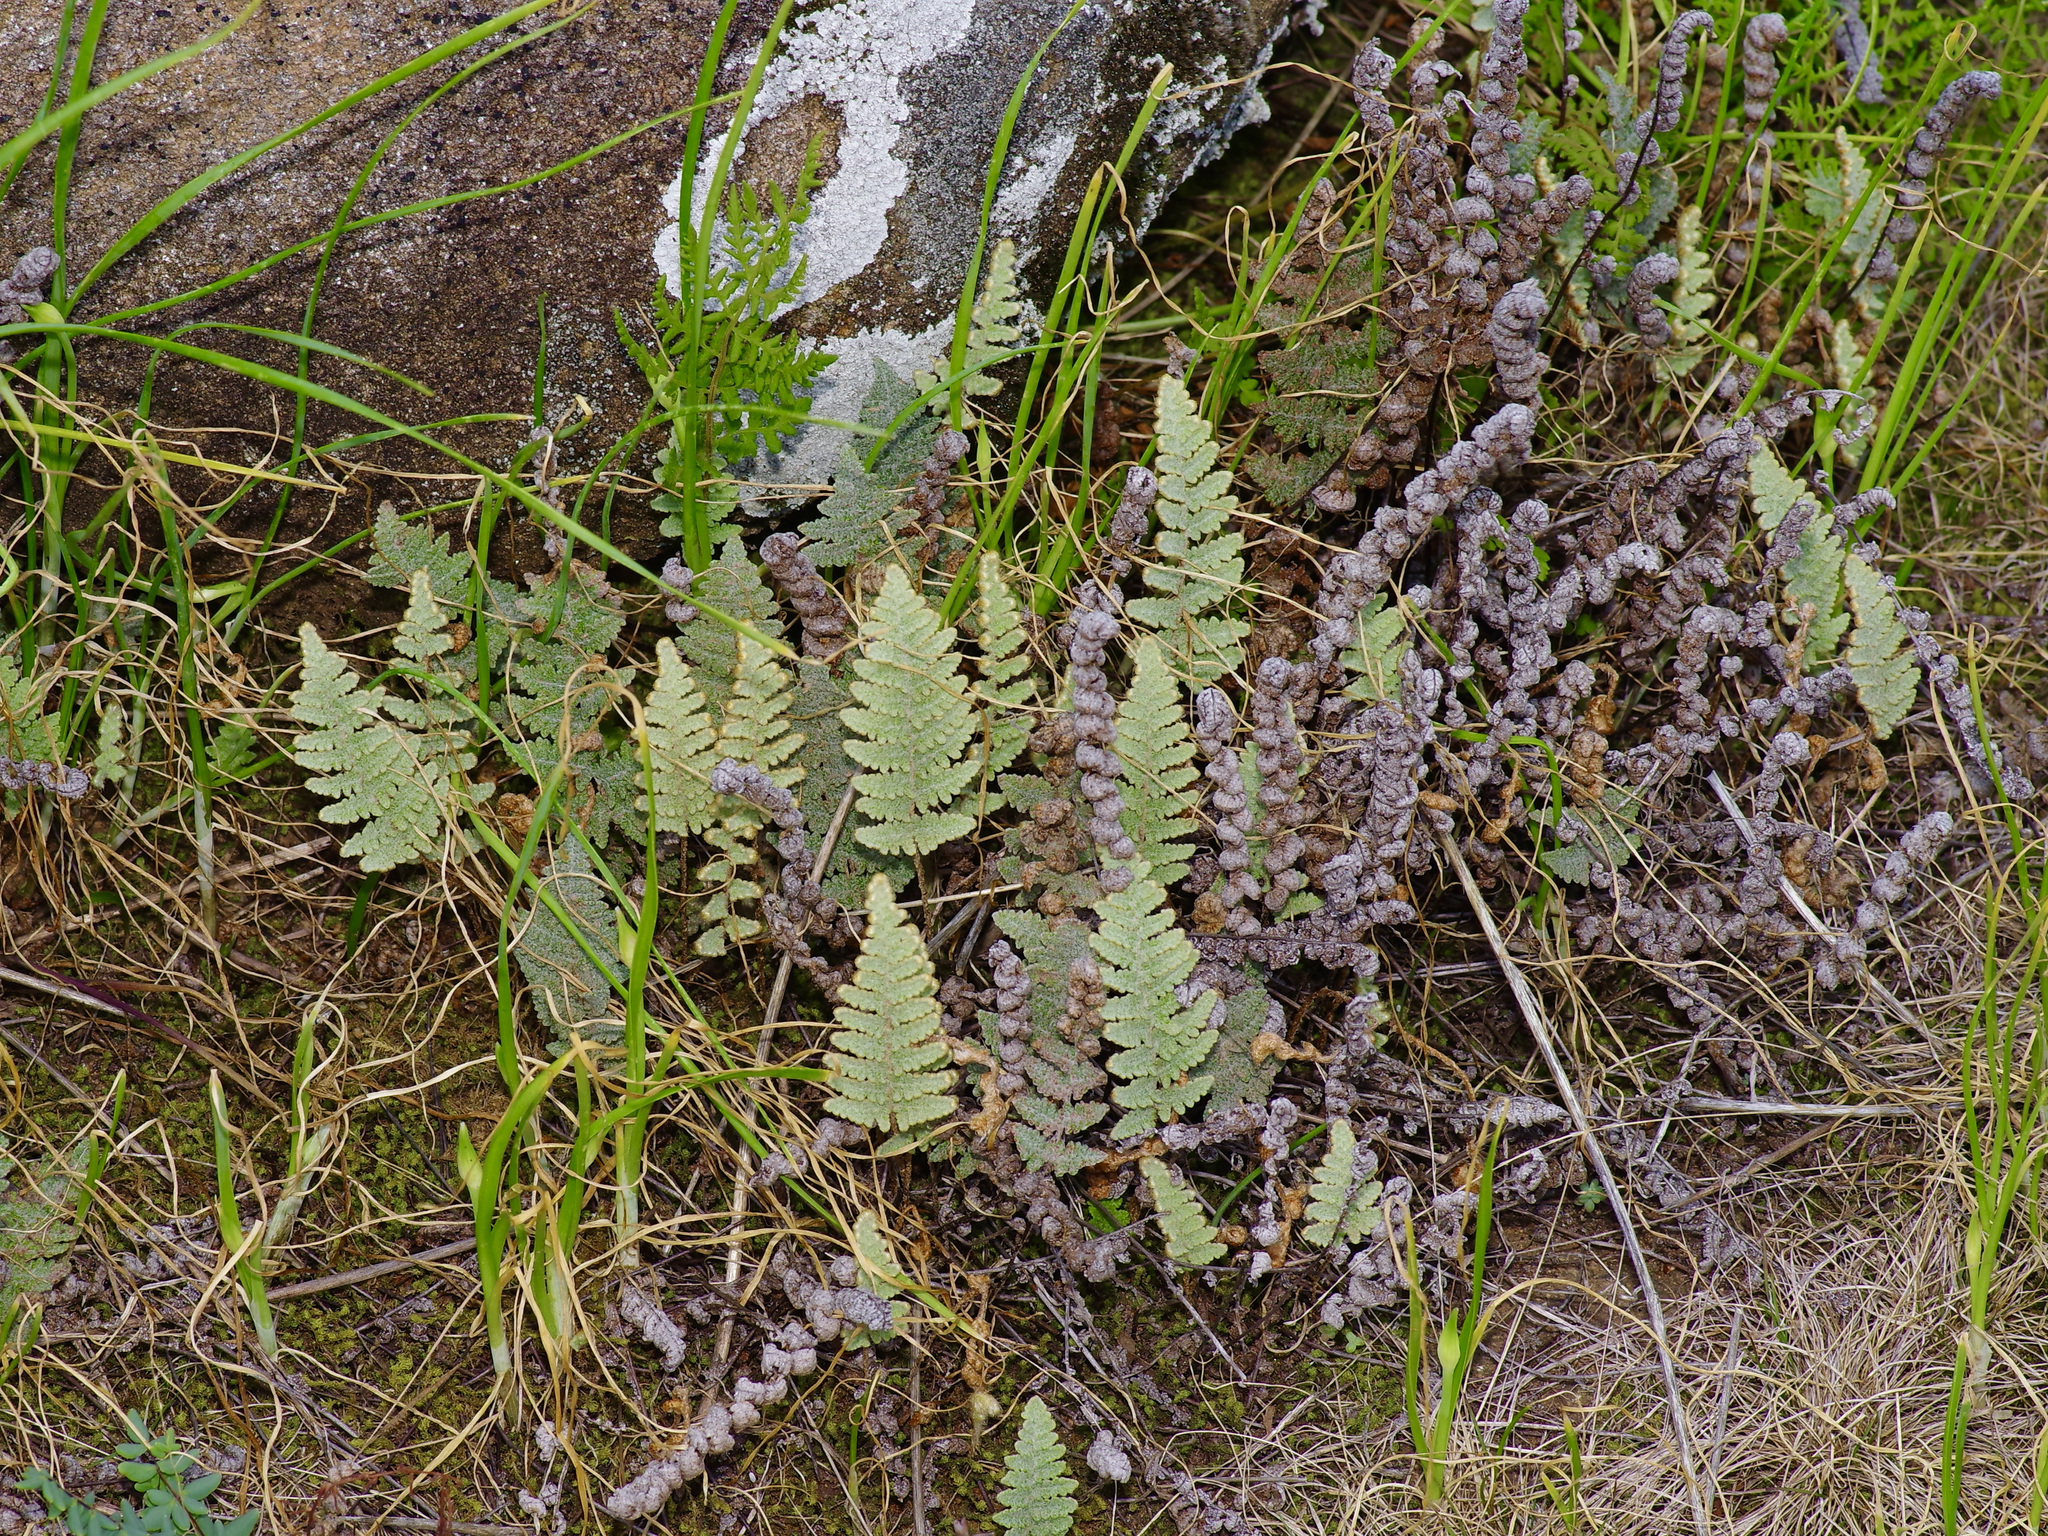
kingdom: Plantae
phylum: Tracheophyta
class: Polypodiopsida
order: Polypodiales
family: Pteridaceae
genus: Myriopteris
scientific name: Myriopteris lindheimeri
